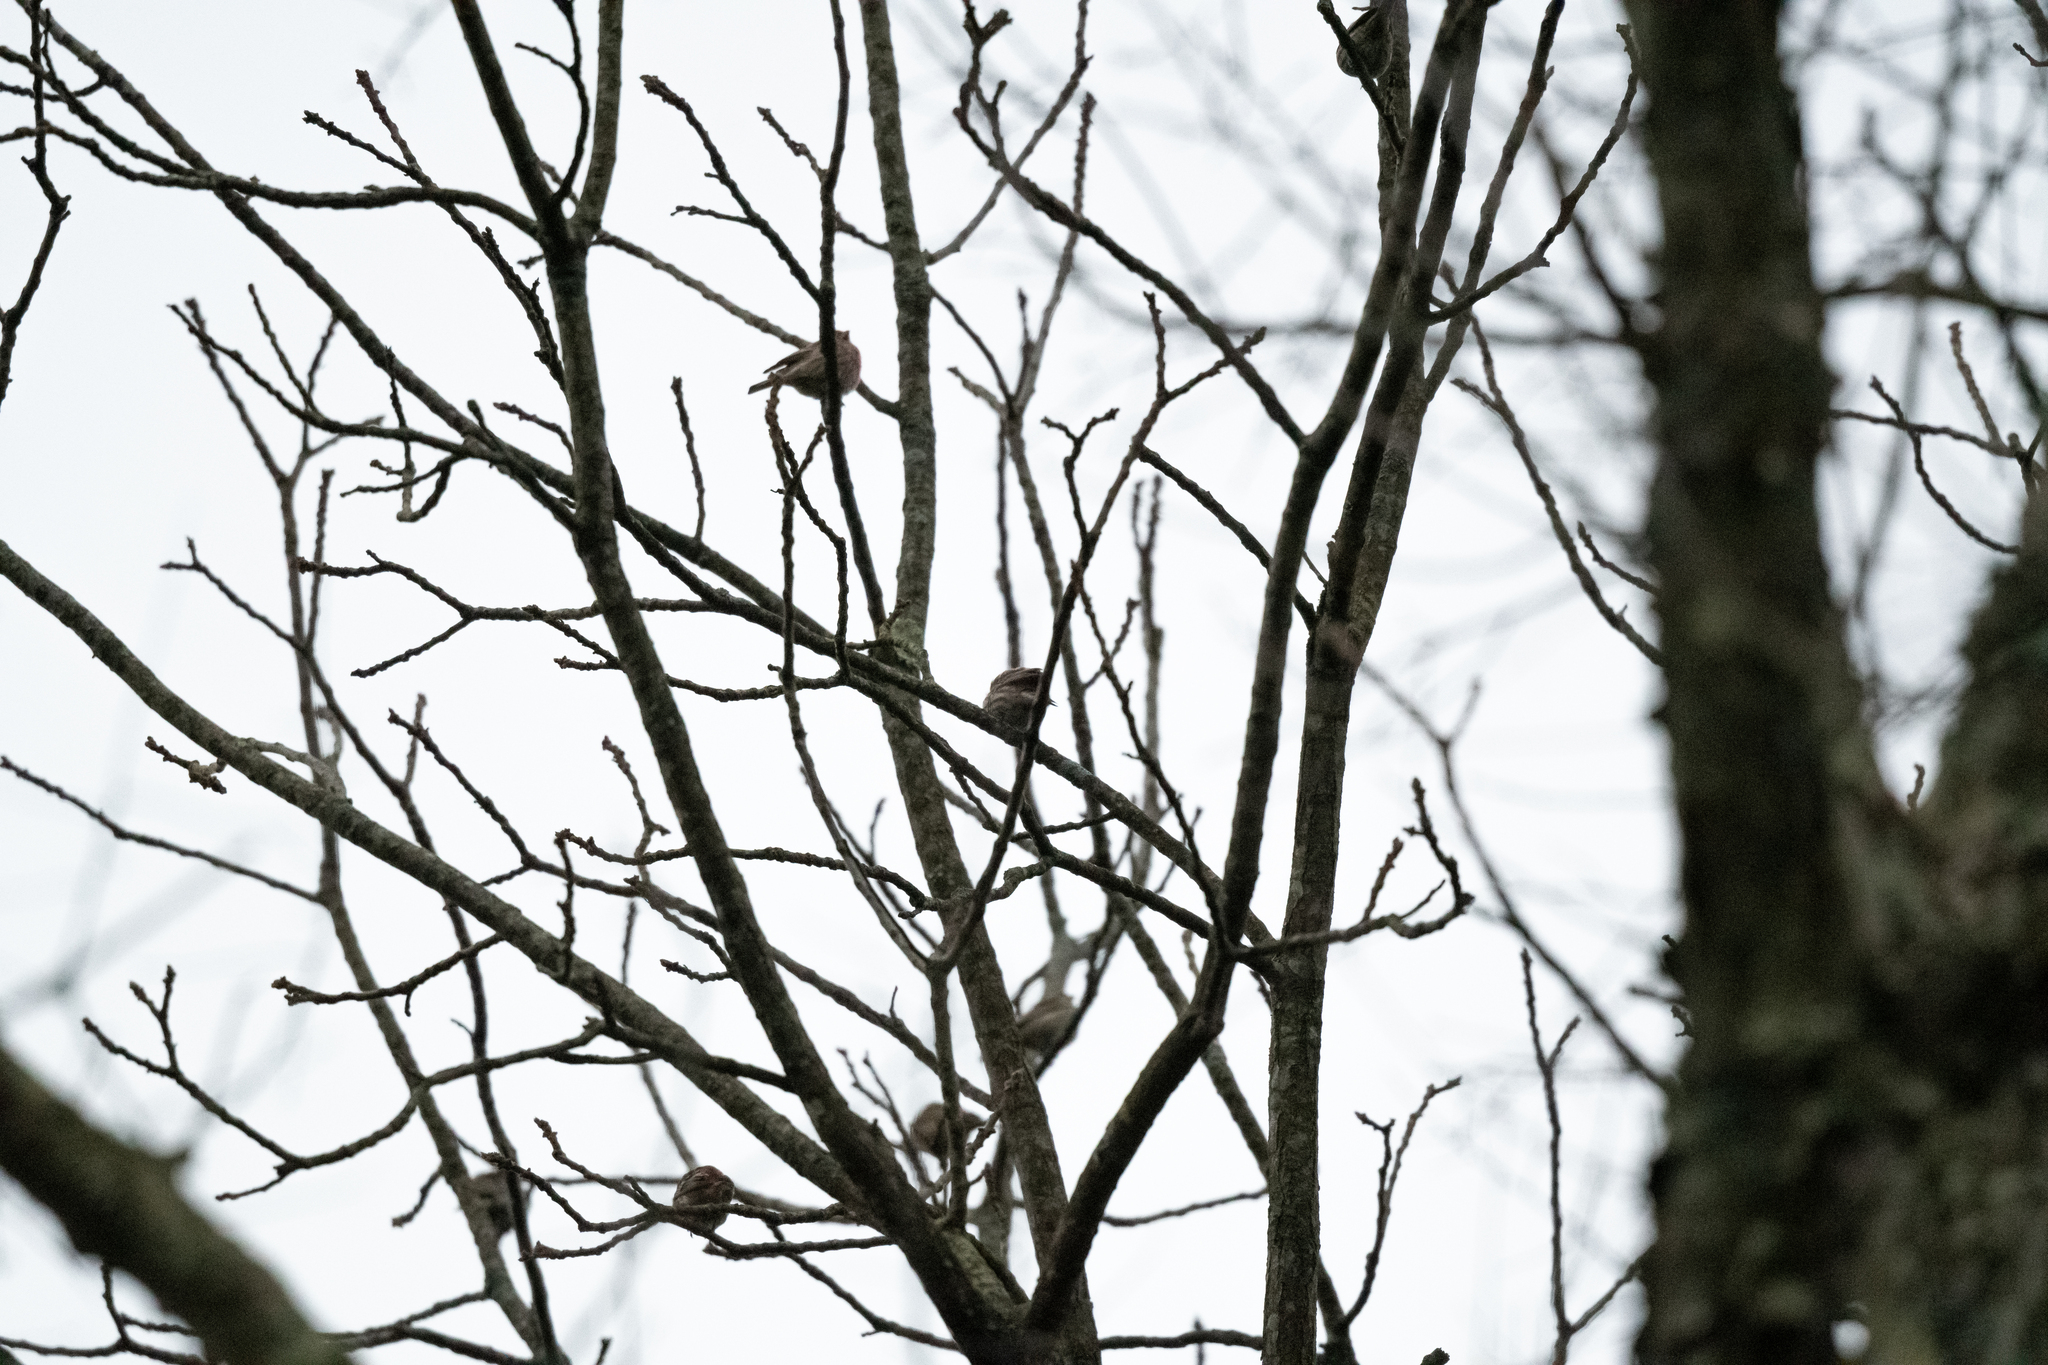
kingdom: Animalia
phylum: Chordata
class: Aves
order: Passeriformes
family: Fringillidae
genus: Haemorhous
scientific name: Haemorhous mexicanus
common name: House finch
